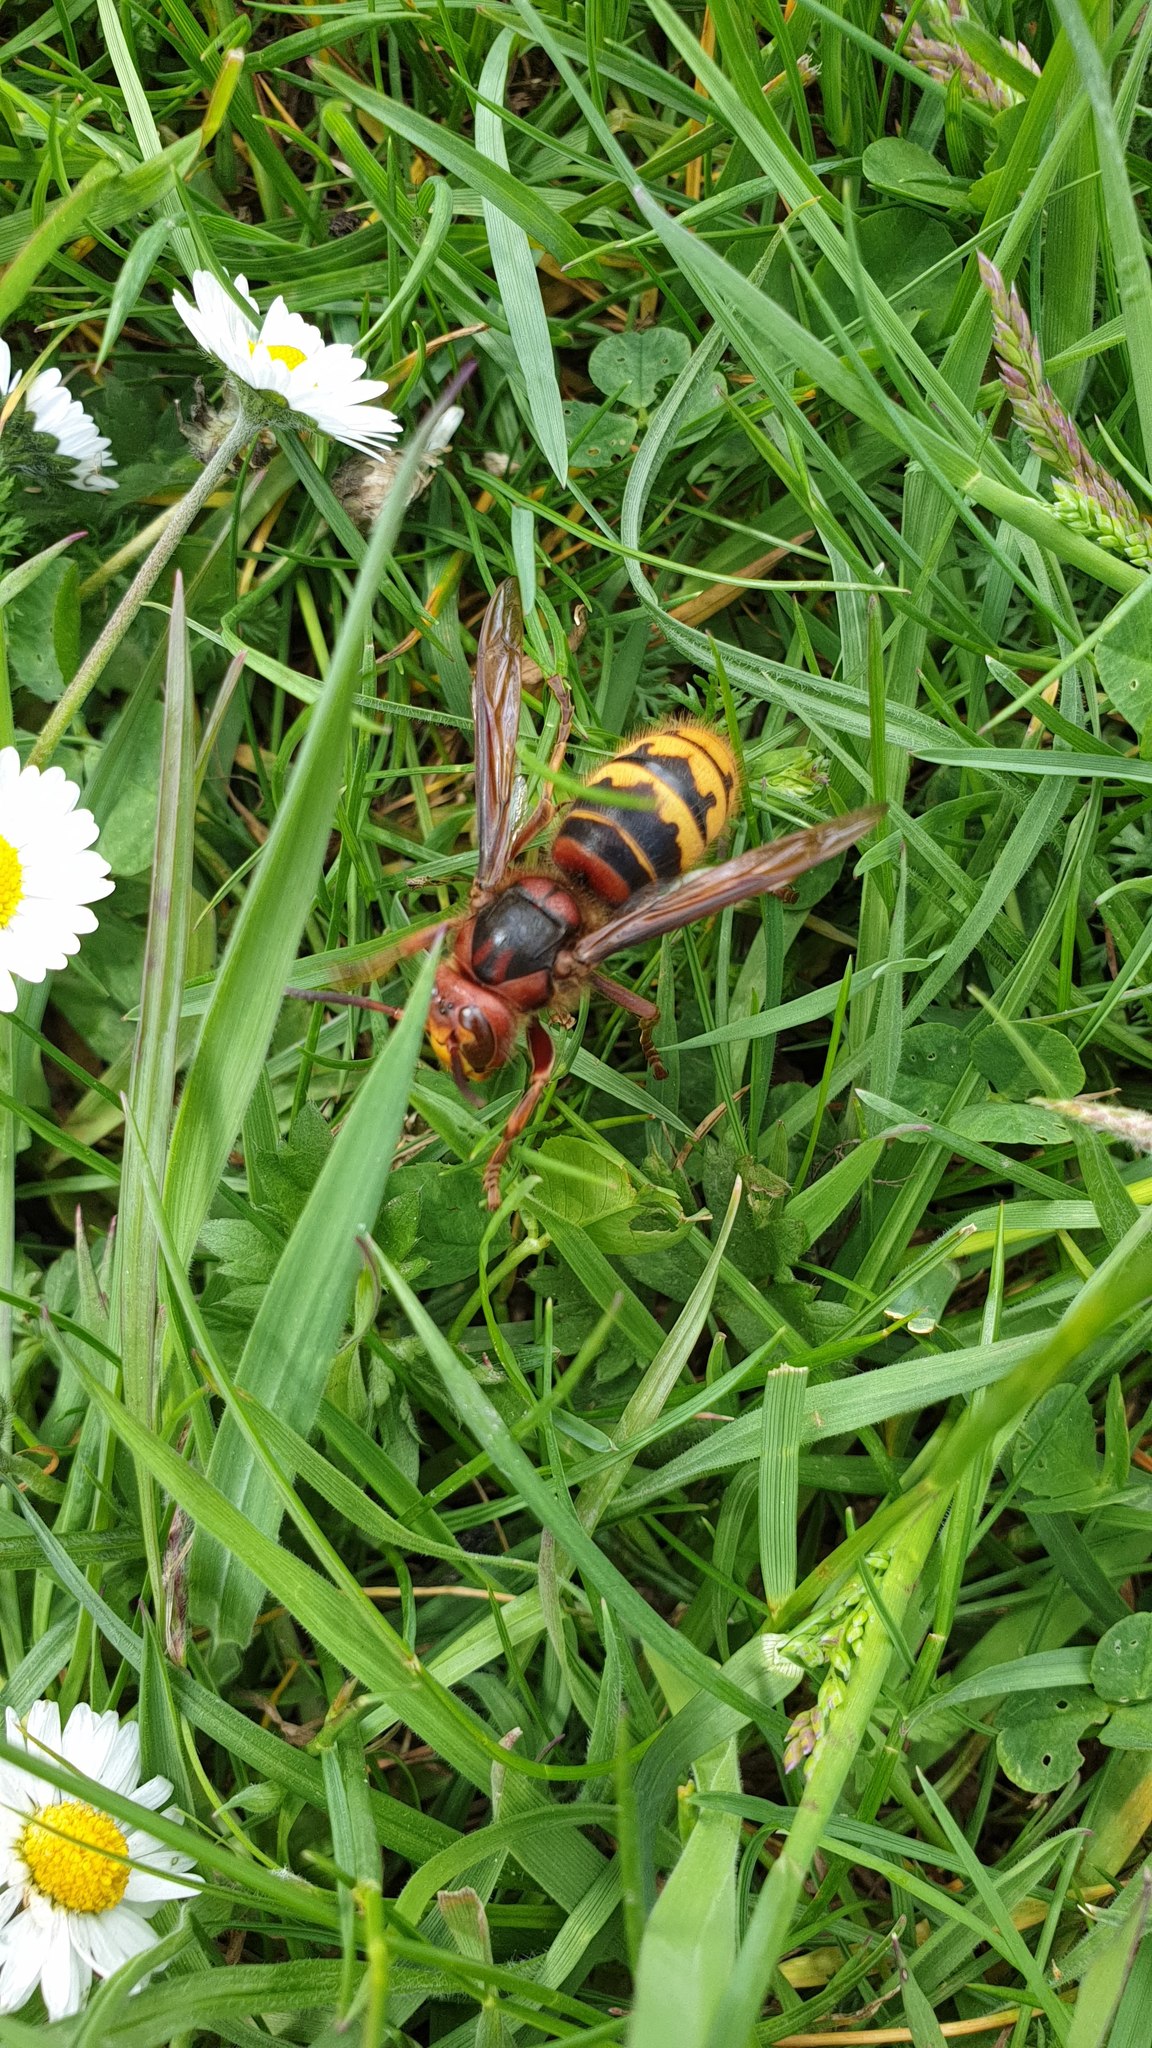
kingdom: Animalia
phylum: Arthropoda
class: Insecta
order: Hymenoptera
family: Vespidae
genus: Vespa
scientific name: Vespa crabro
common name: Hornet
